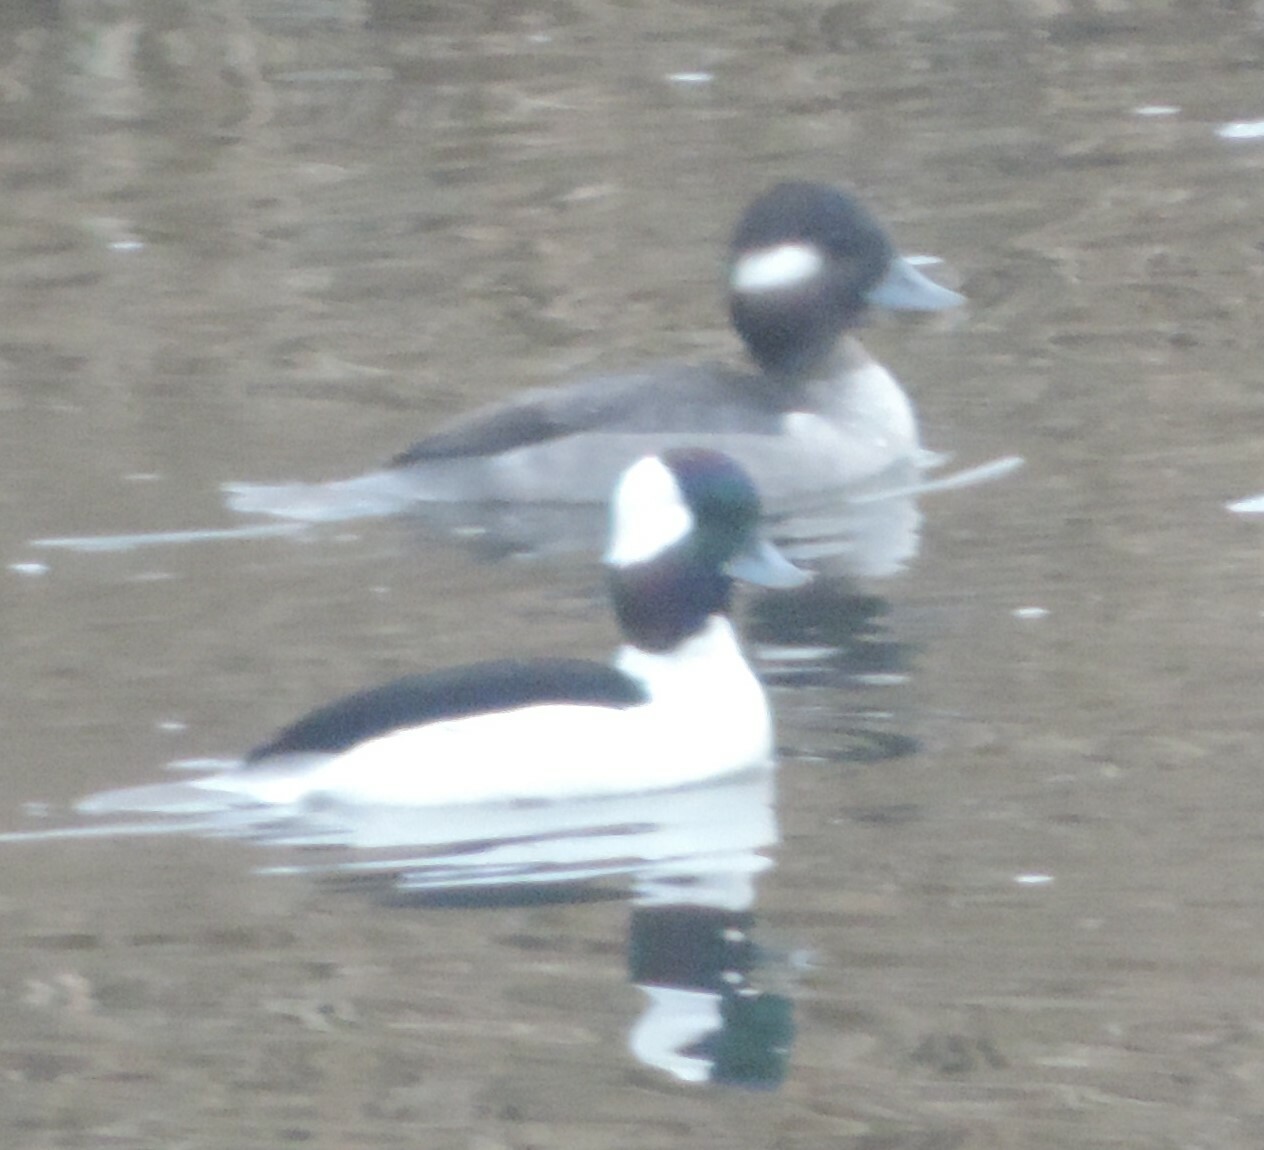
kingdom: Animalia
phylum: Chordata
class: Aves
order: Anseriformes
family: Anatidae
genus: Bucephala
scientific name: Bucephala albeola
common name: Bufflehead
